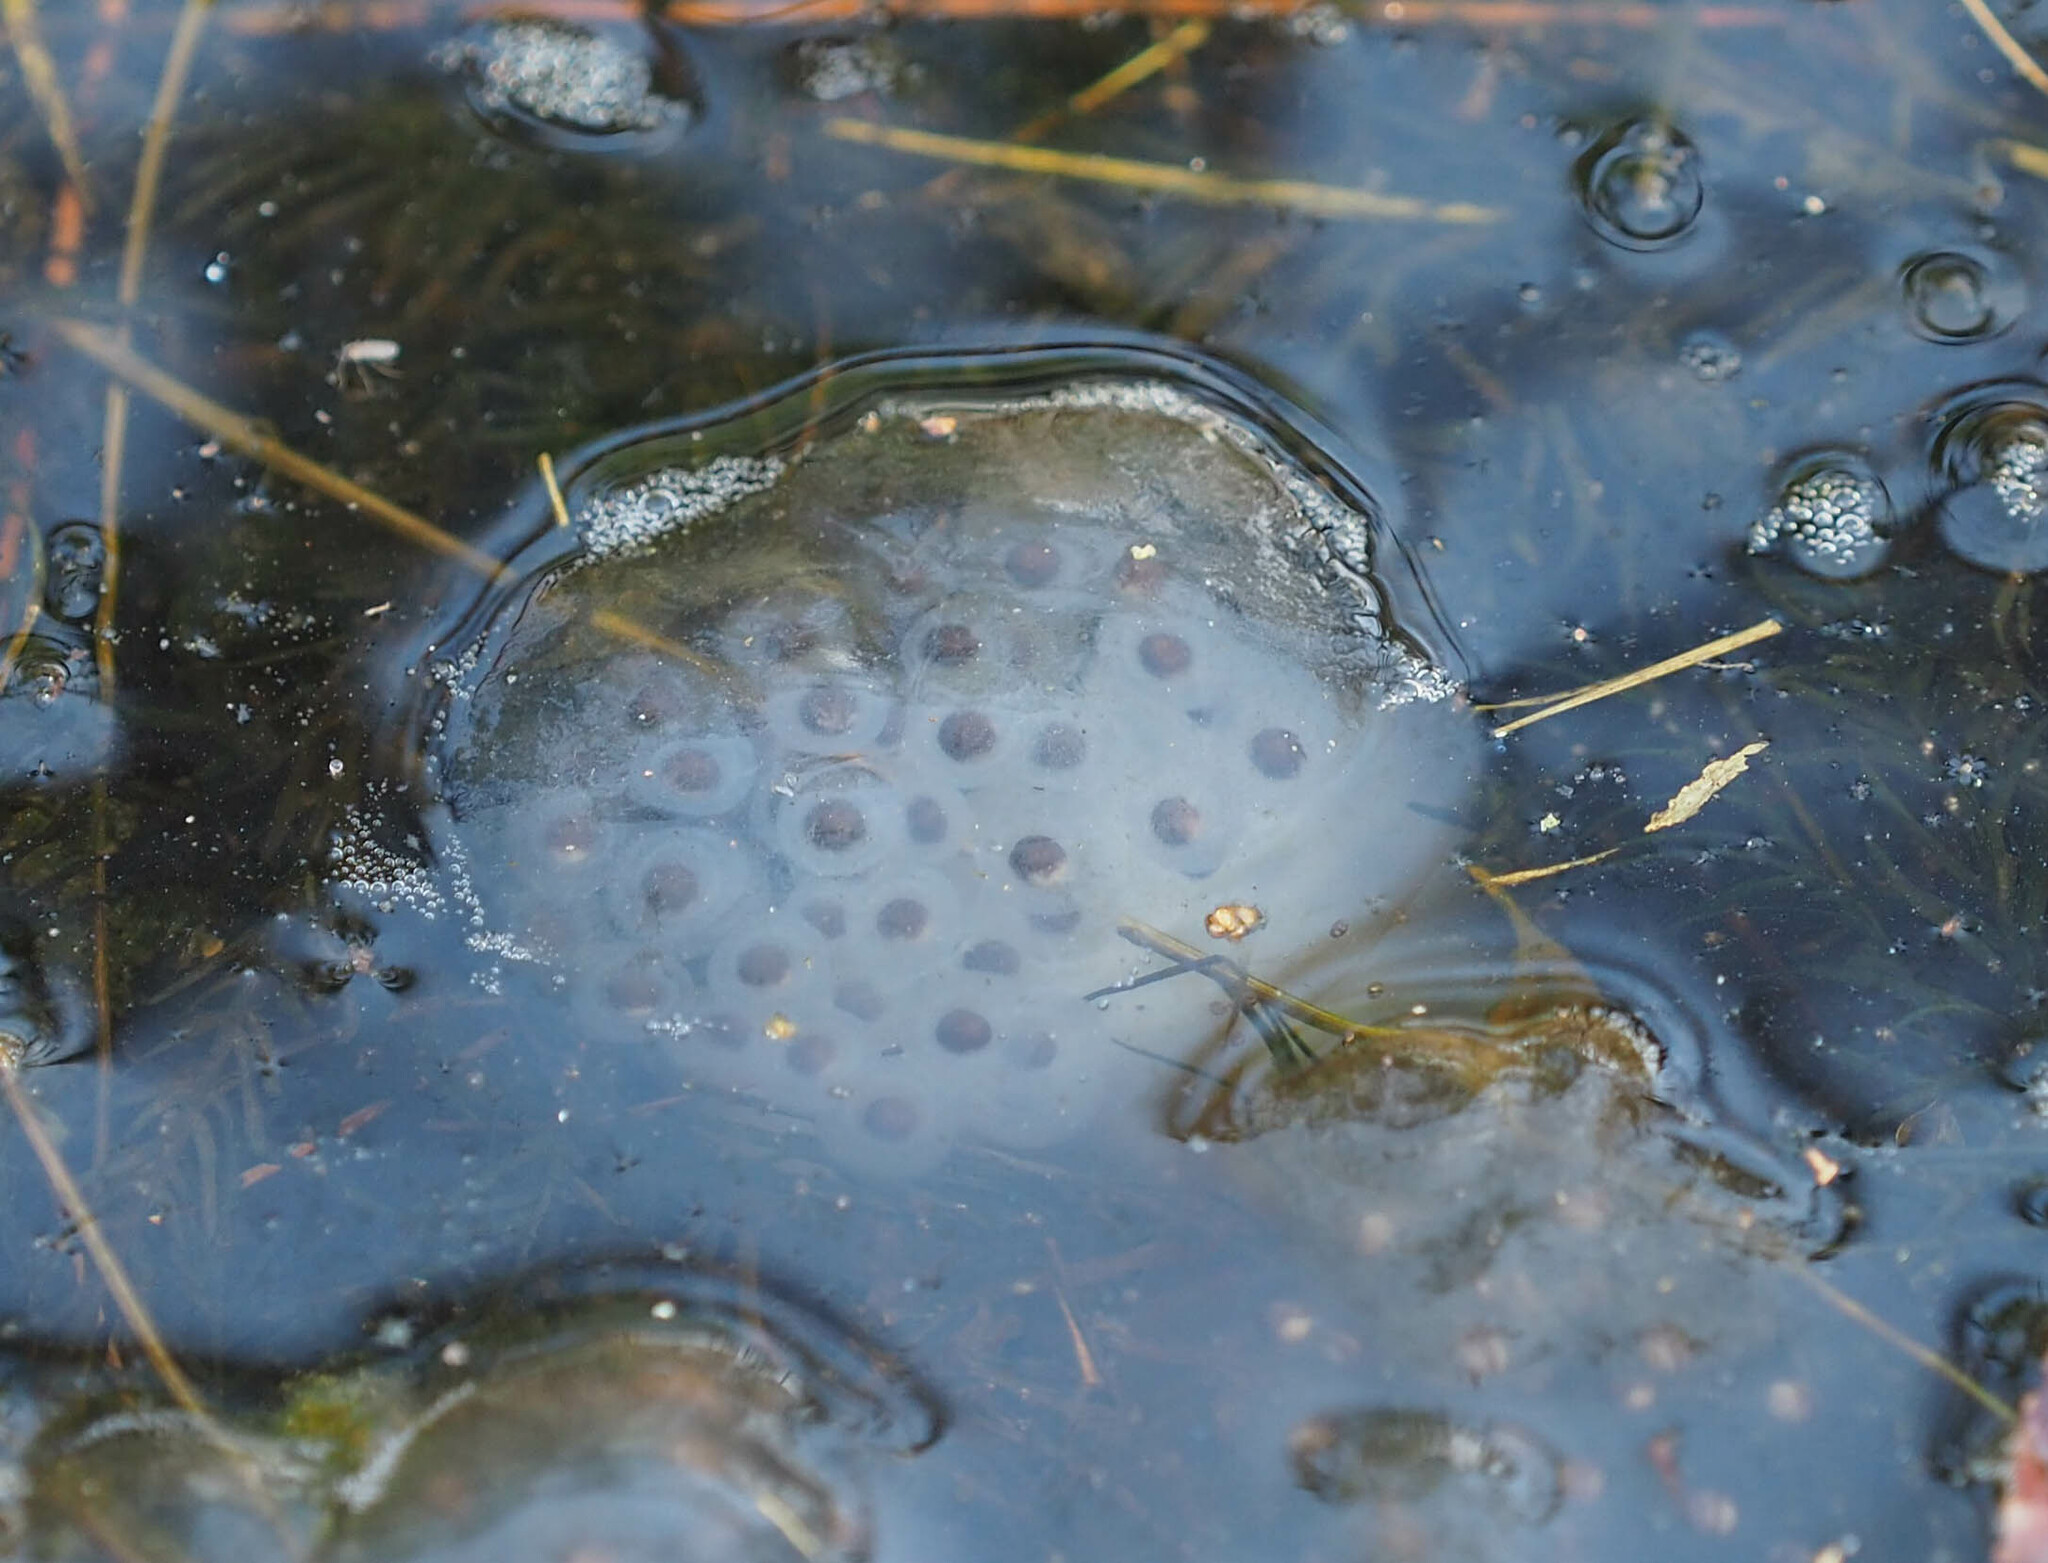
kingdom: Animalia
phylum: Chordata
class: Amphibia
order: Caudata
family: Ambystomatidae
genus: Ambystoma
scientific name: Ambystoma maculatum
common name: Spotted salamander
